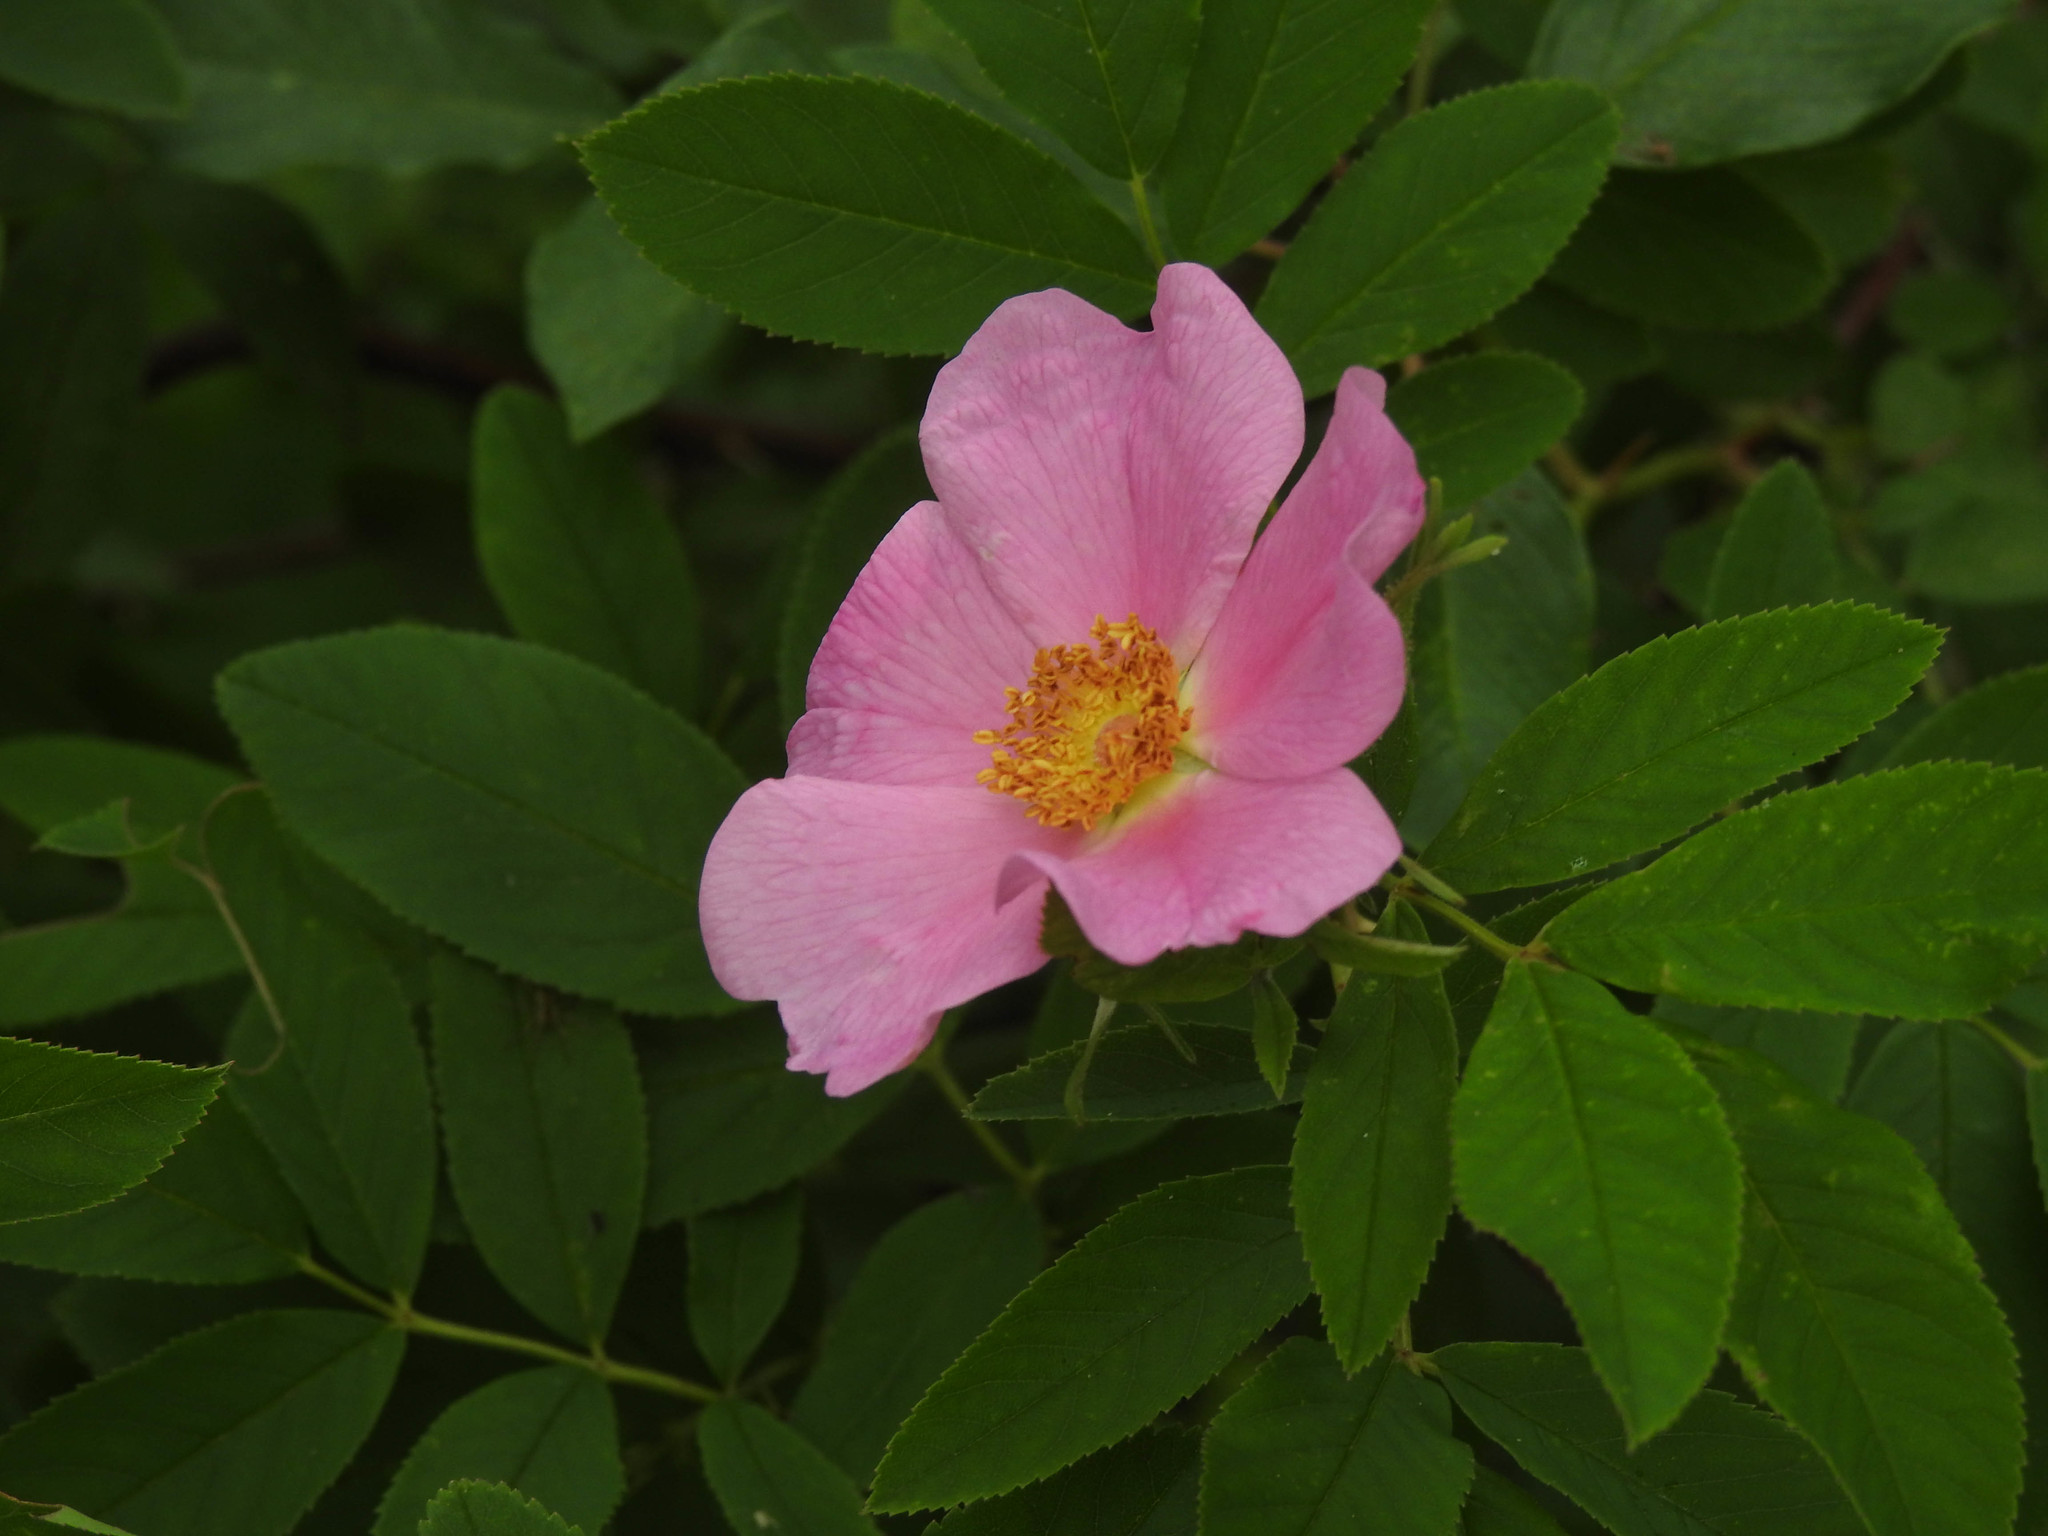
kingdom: Plantae
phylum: Tracheophyta
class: Magnoliopsida
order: Rosales
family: Rosaceae
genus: Rosa
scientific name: Rosa palustris
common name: Swamp rose
